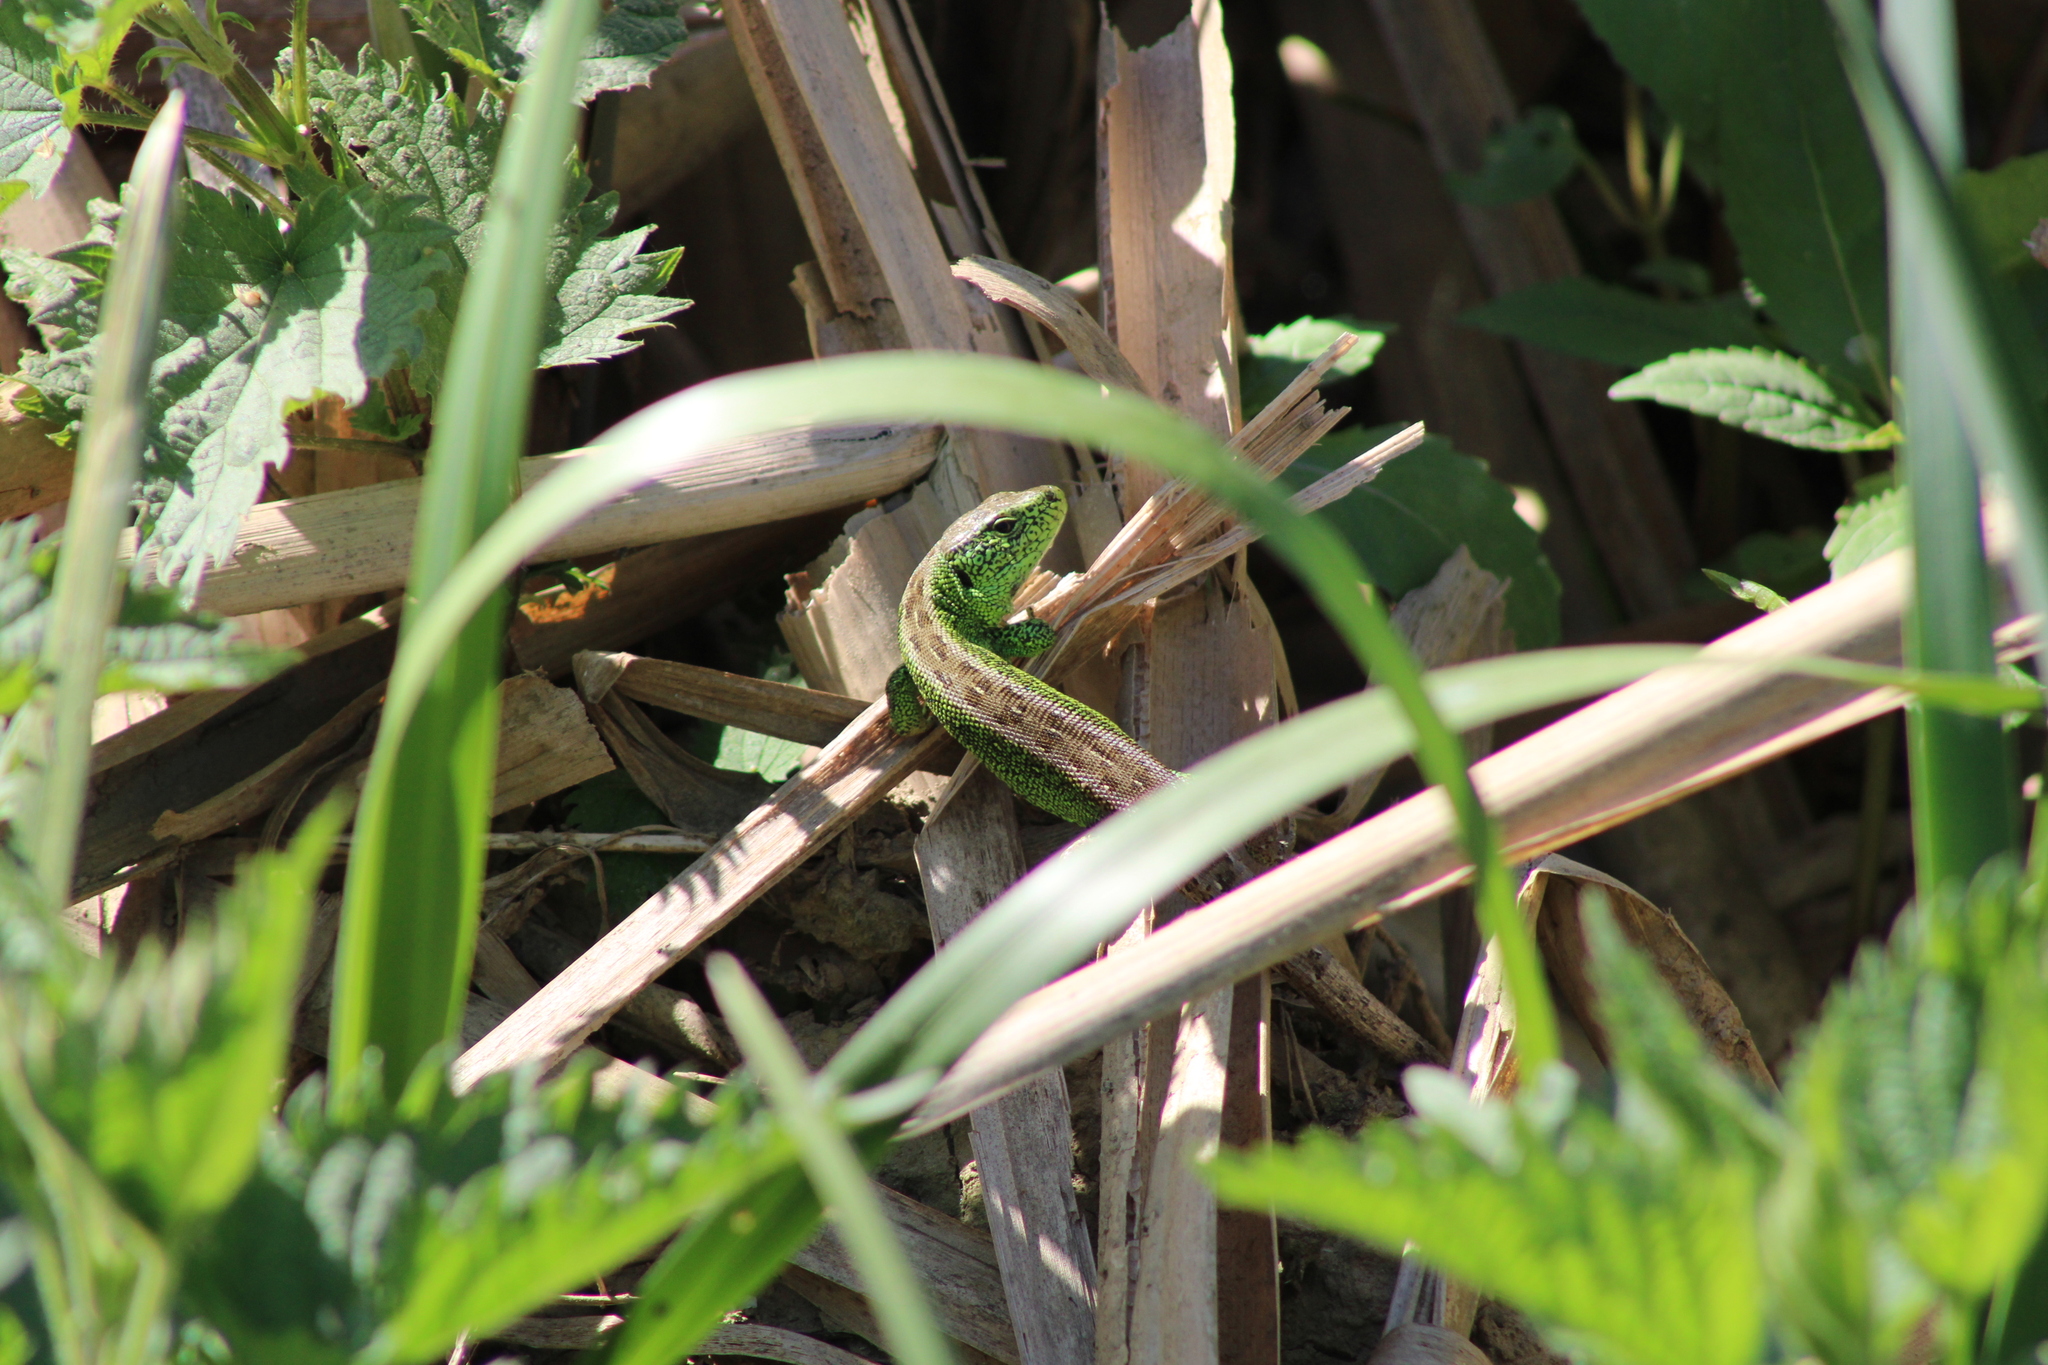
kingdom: Animalia
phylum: Chordata
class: Squamata
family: Lacertidae
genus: Lacerta
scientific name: Lacerta agilis
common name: Sand lizard
